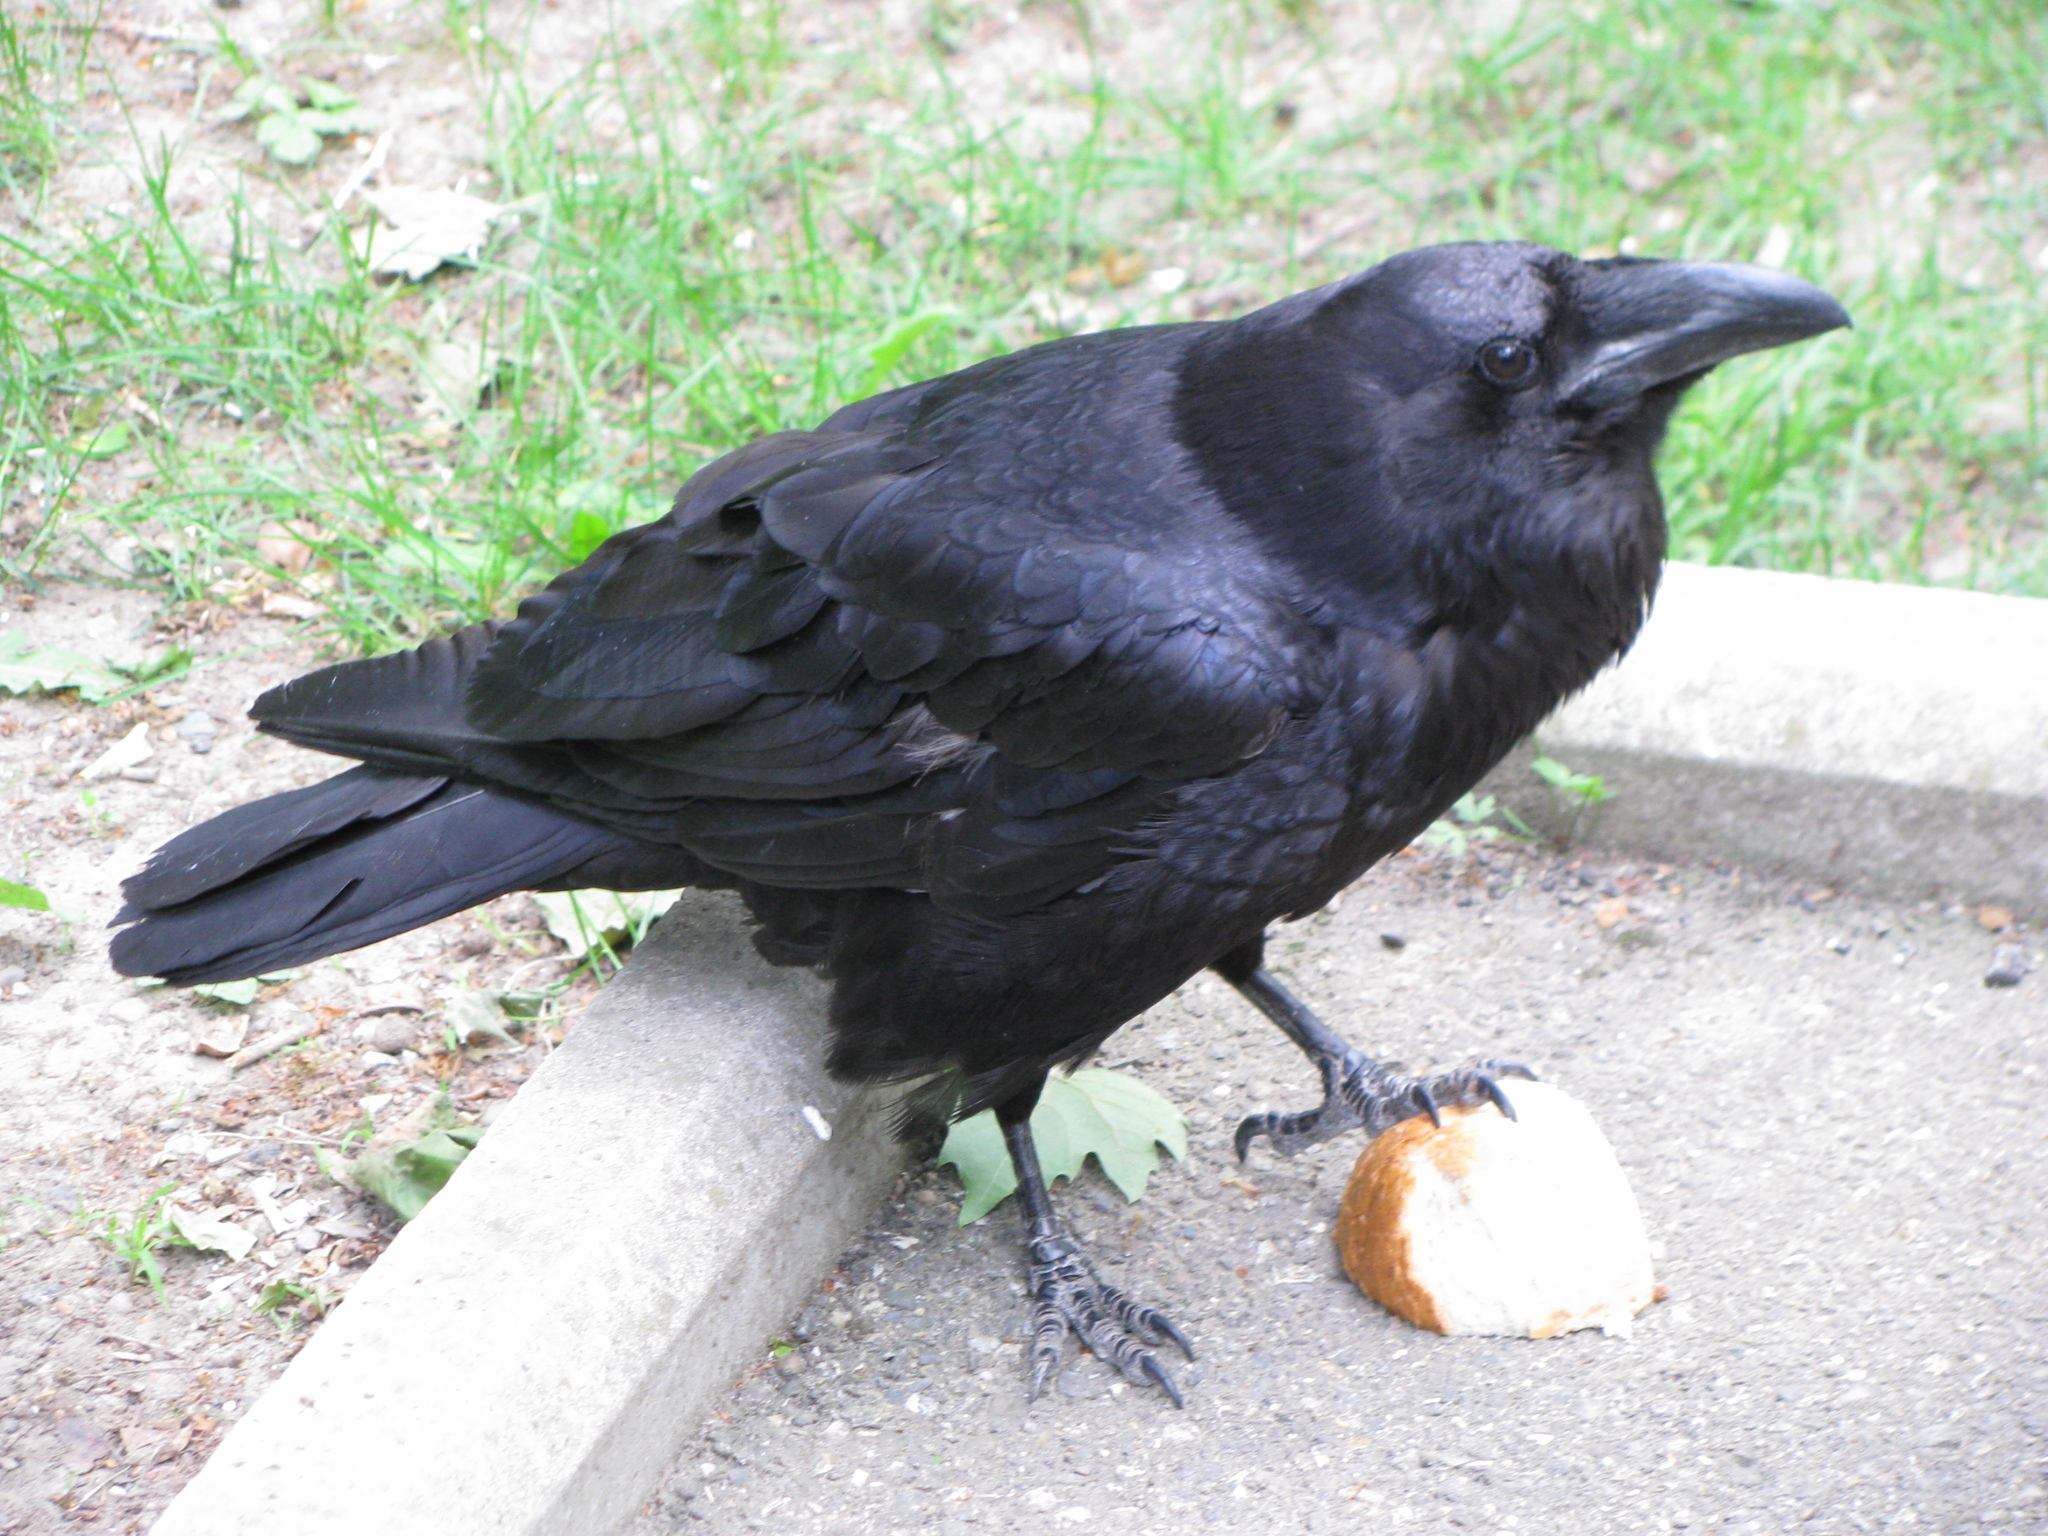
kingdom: Animalia
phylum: Chordata
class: Aves
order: Passeriformes
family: Corvidae
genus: Corvus
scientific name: Corvus corax
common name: Common raven
